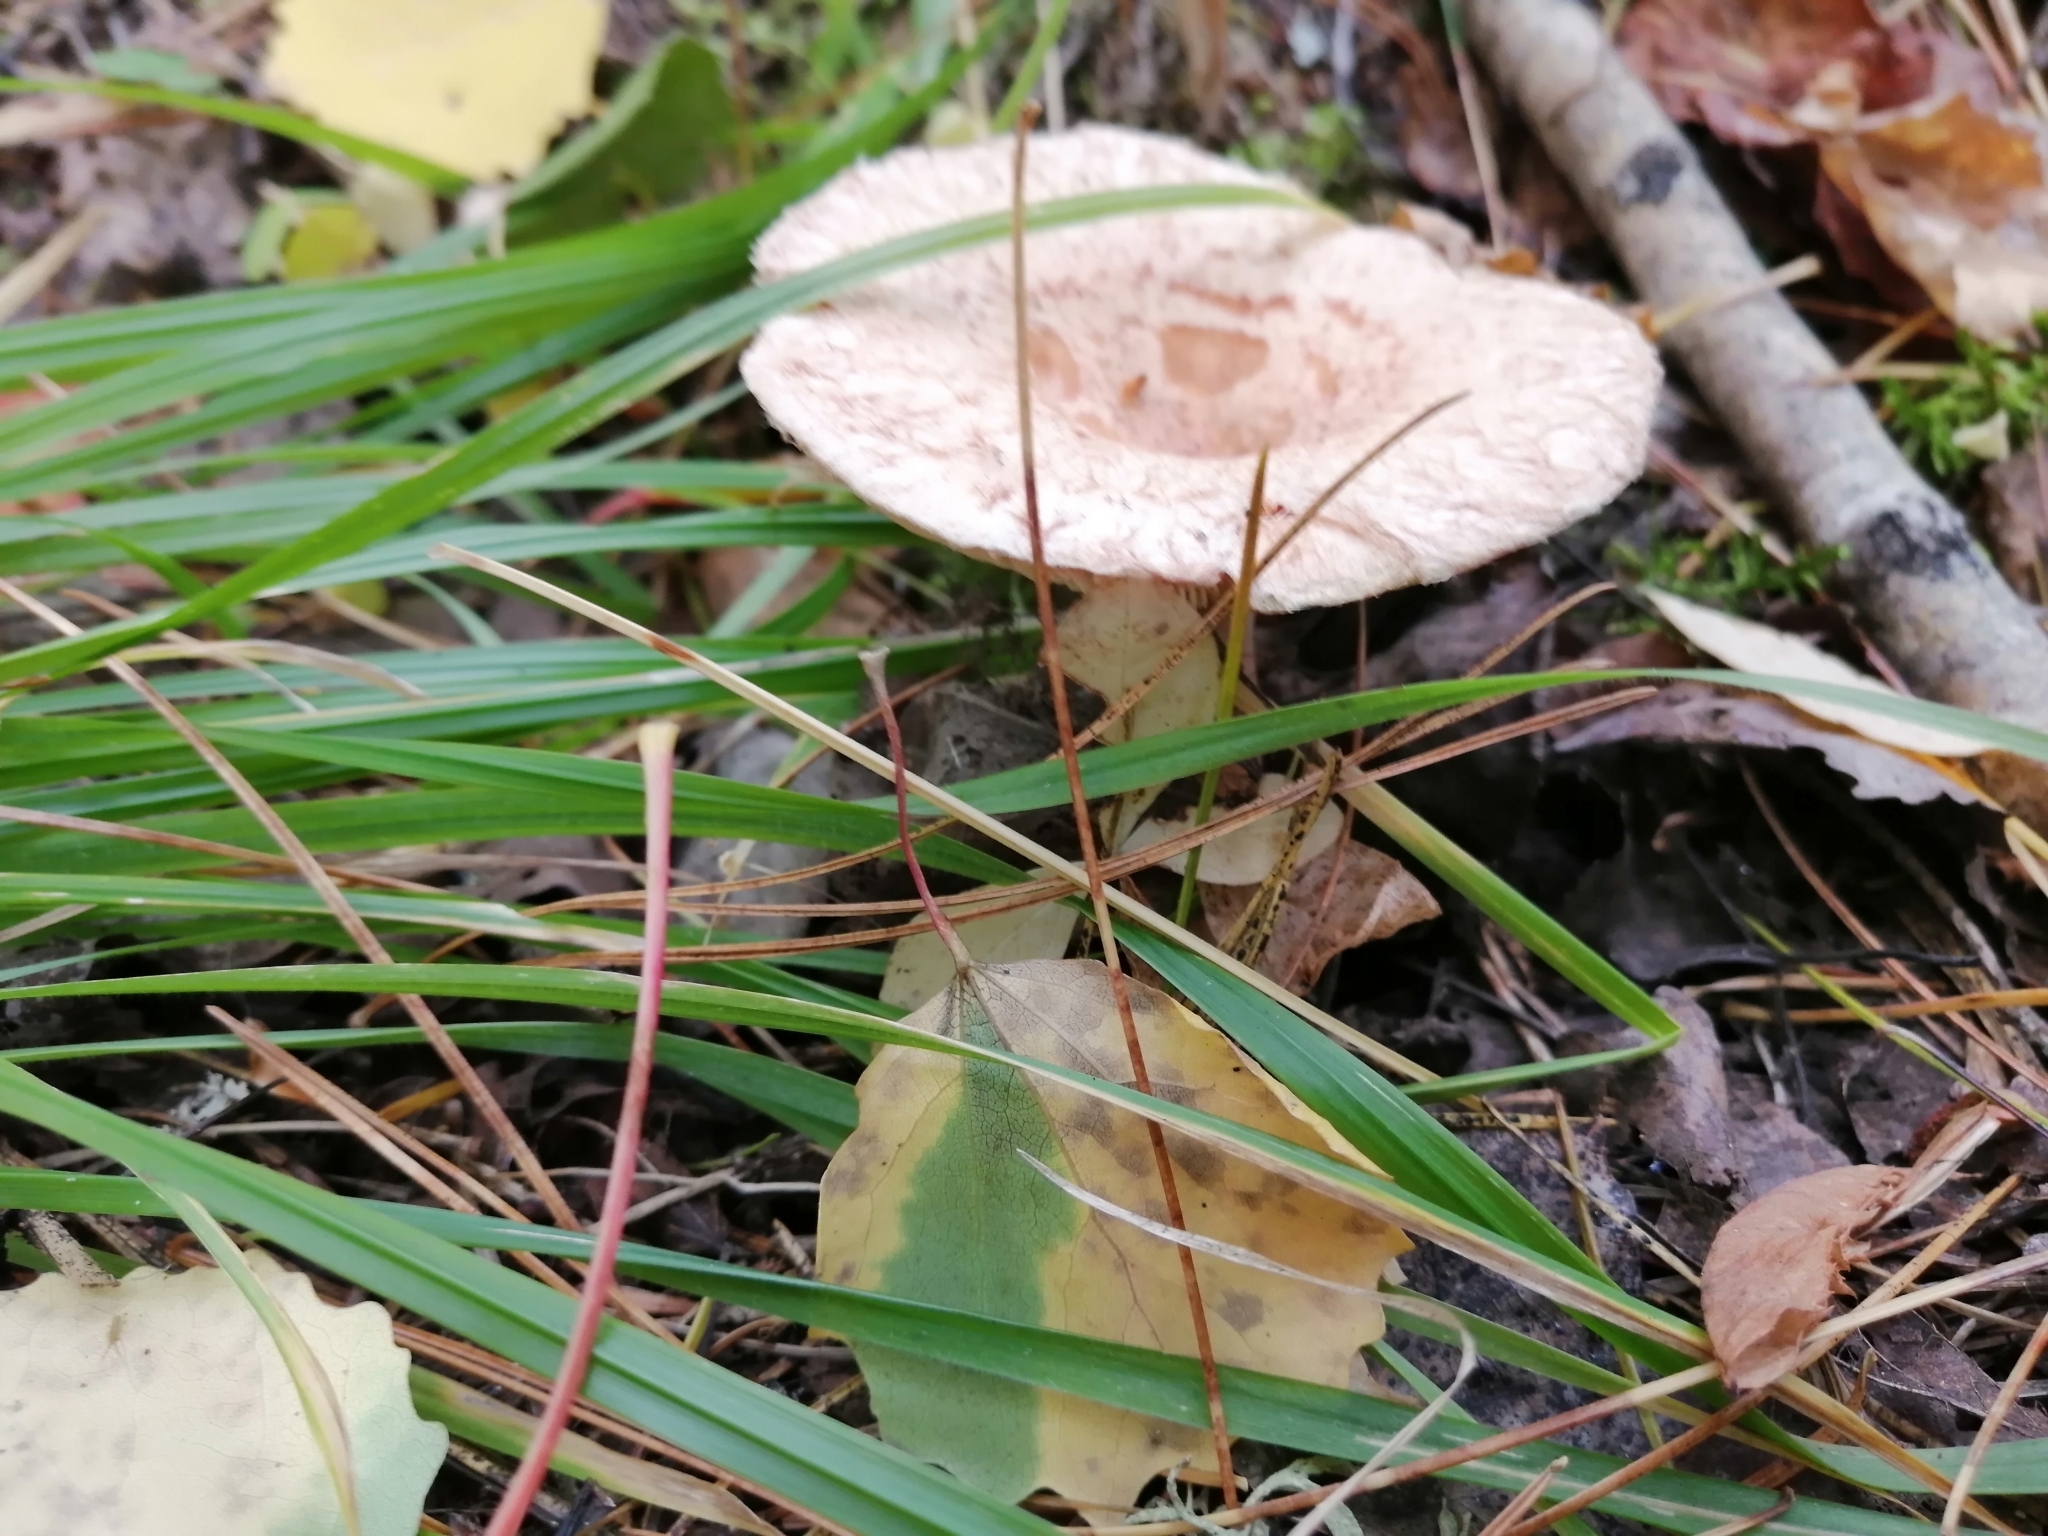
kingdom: Fungi
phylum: Basidiomycota
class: Agaricomycetes
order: Russulales
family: Russulaceae
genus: Lactarius
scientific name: Lactarius torminosus
